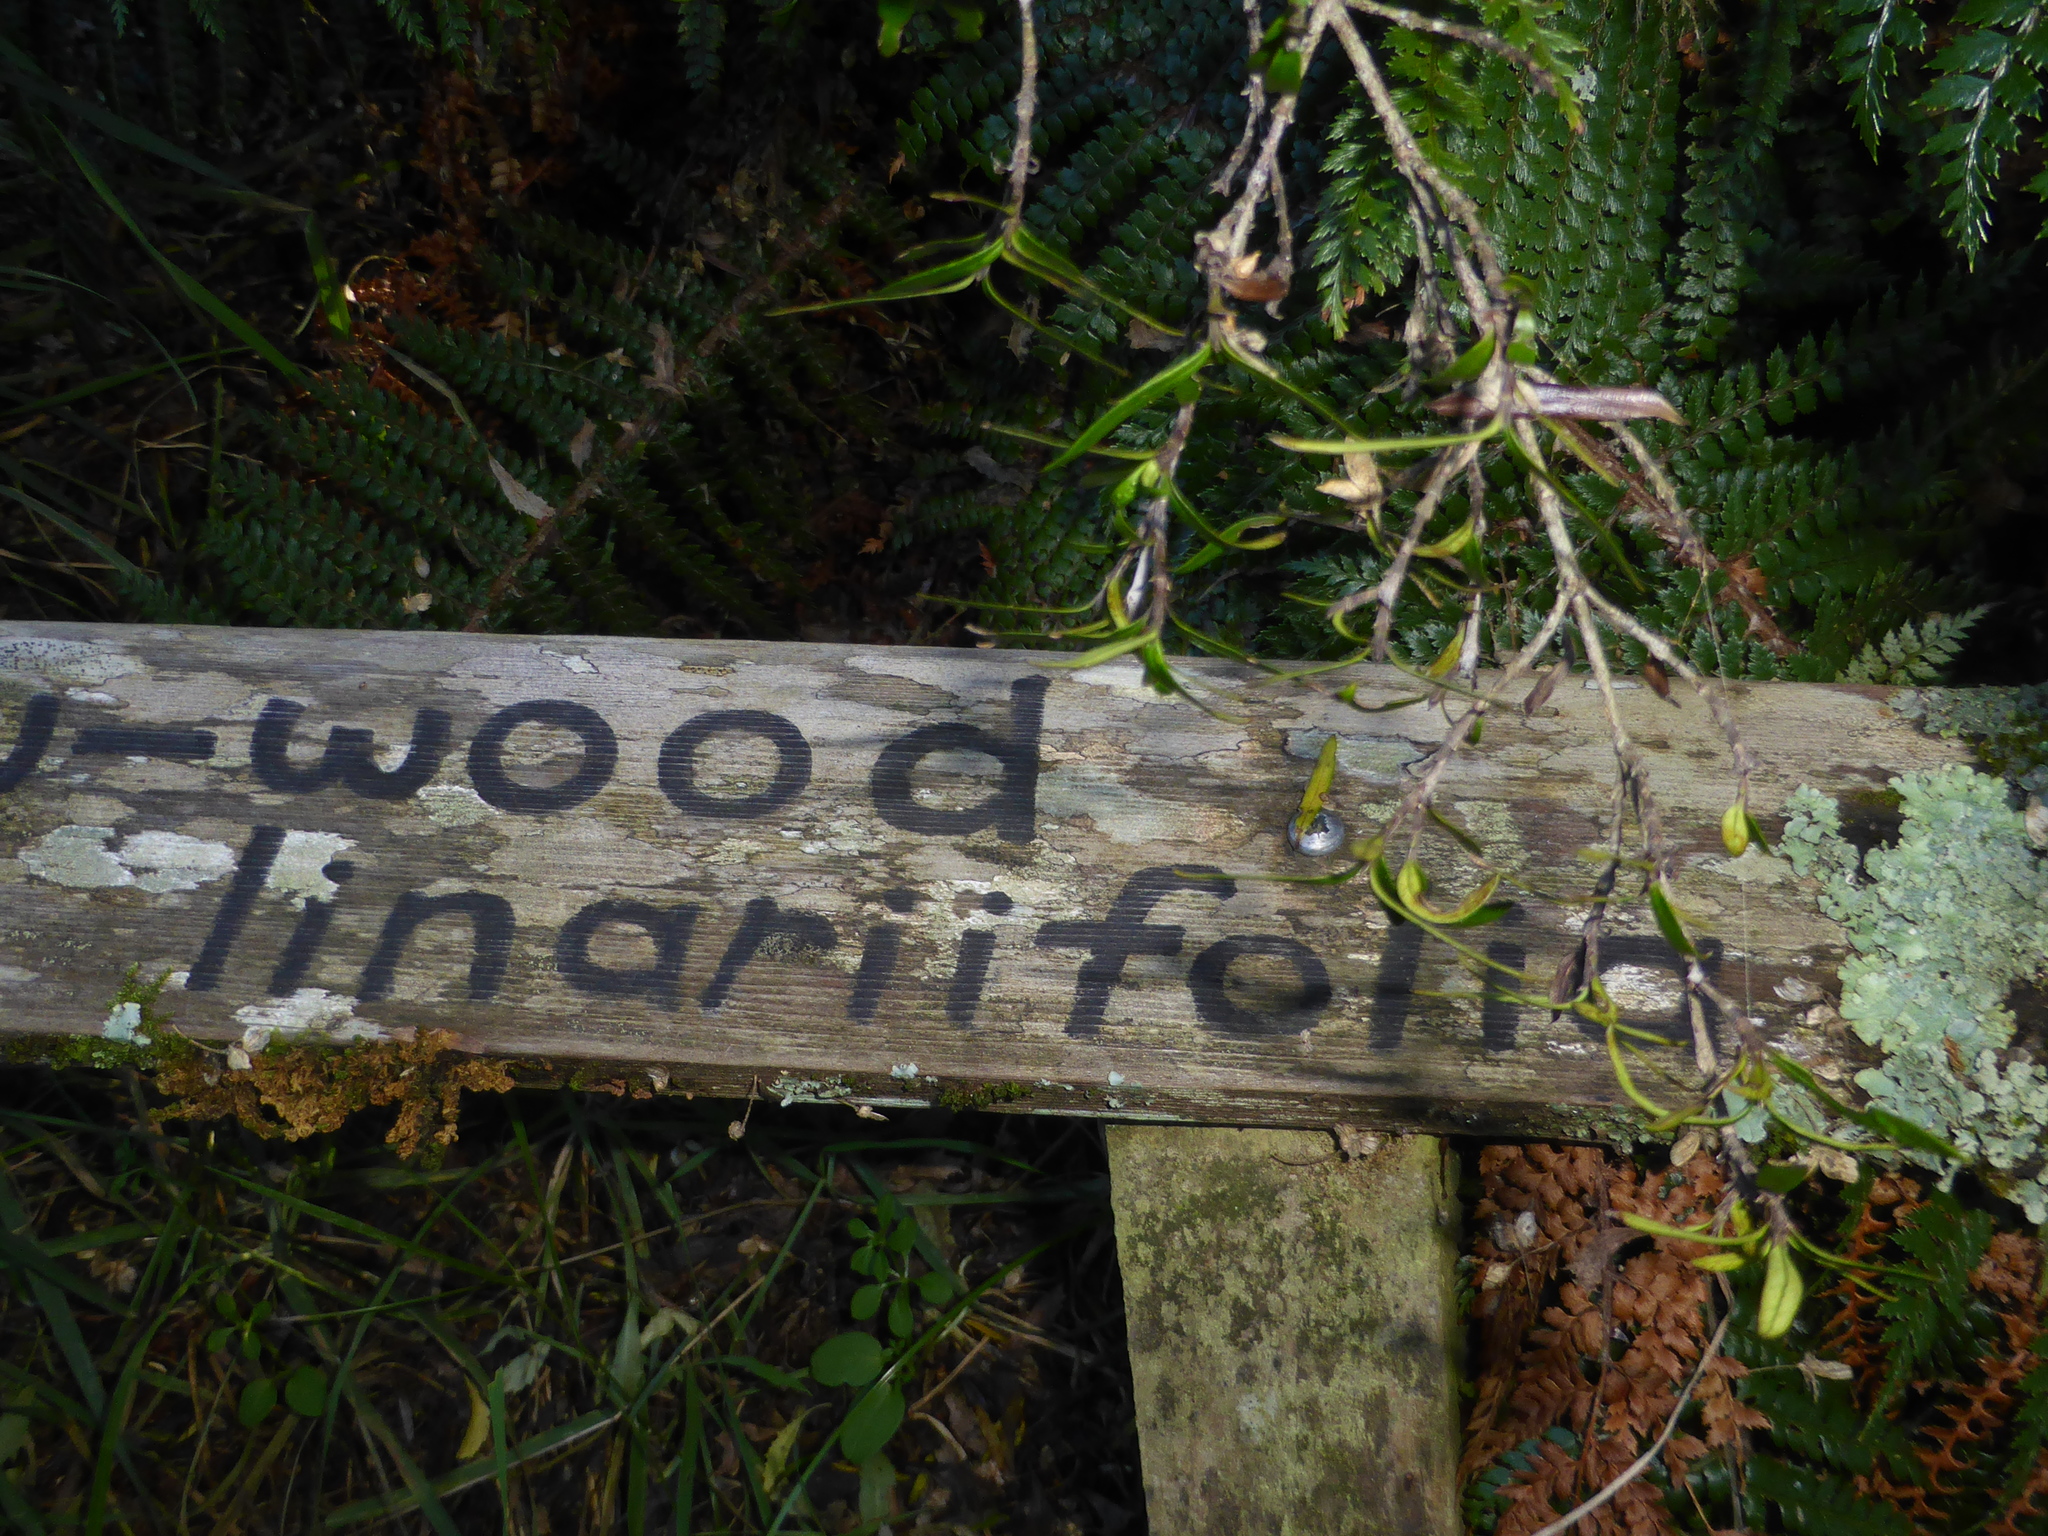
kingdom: Plantae
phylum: Tracheophyta
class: Magnoliopsida
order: Gentianales
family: Rubiaceae
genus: Coprosma
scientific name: Coprosma linariifolia
